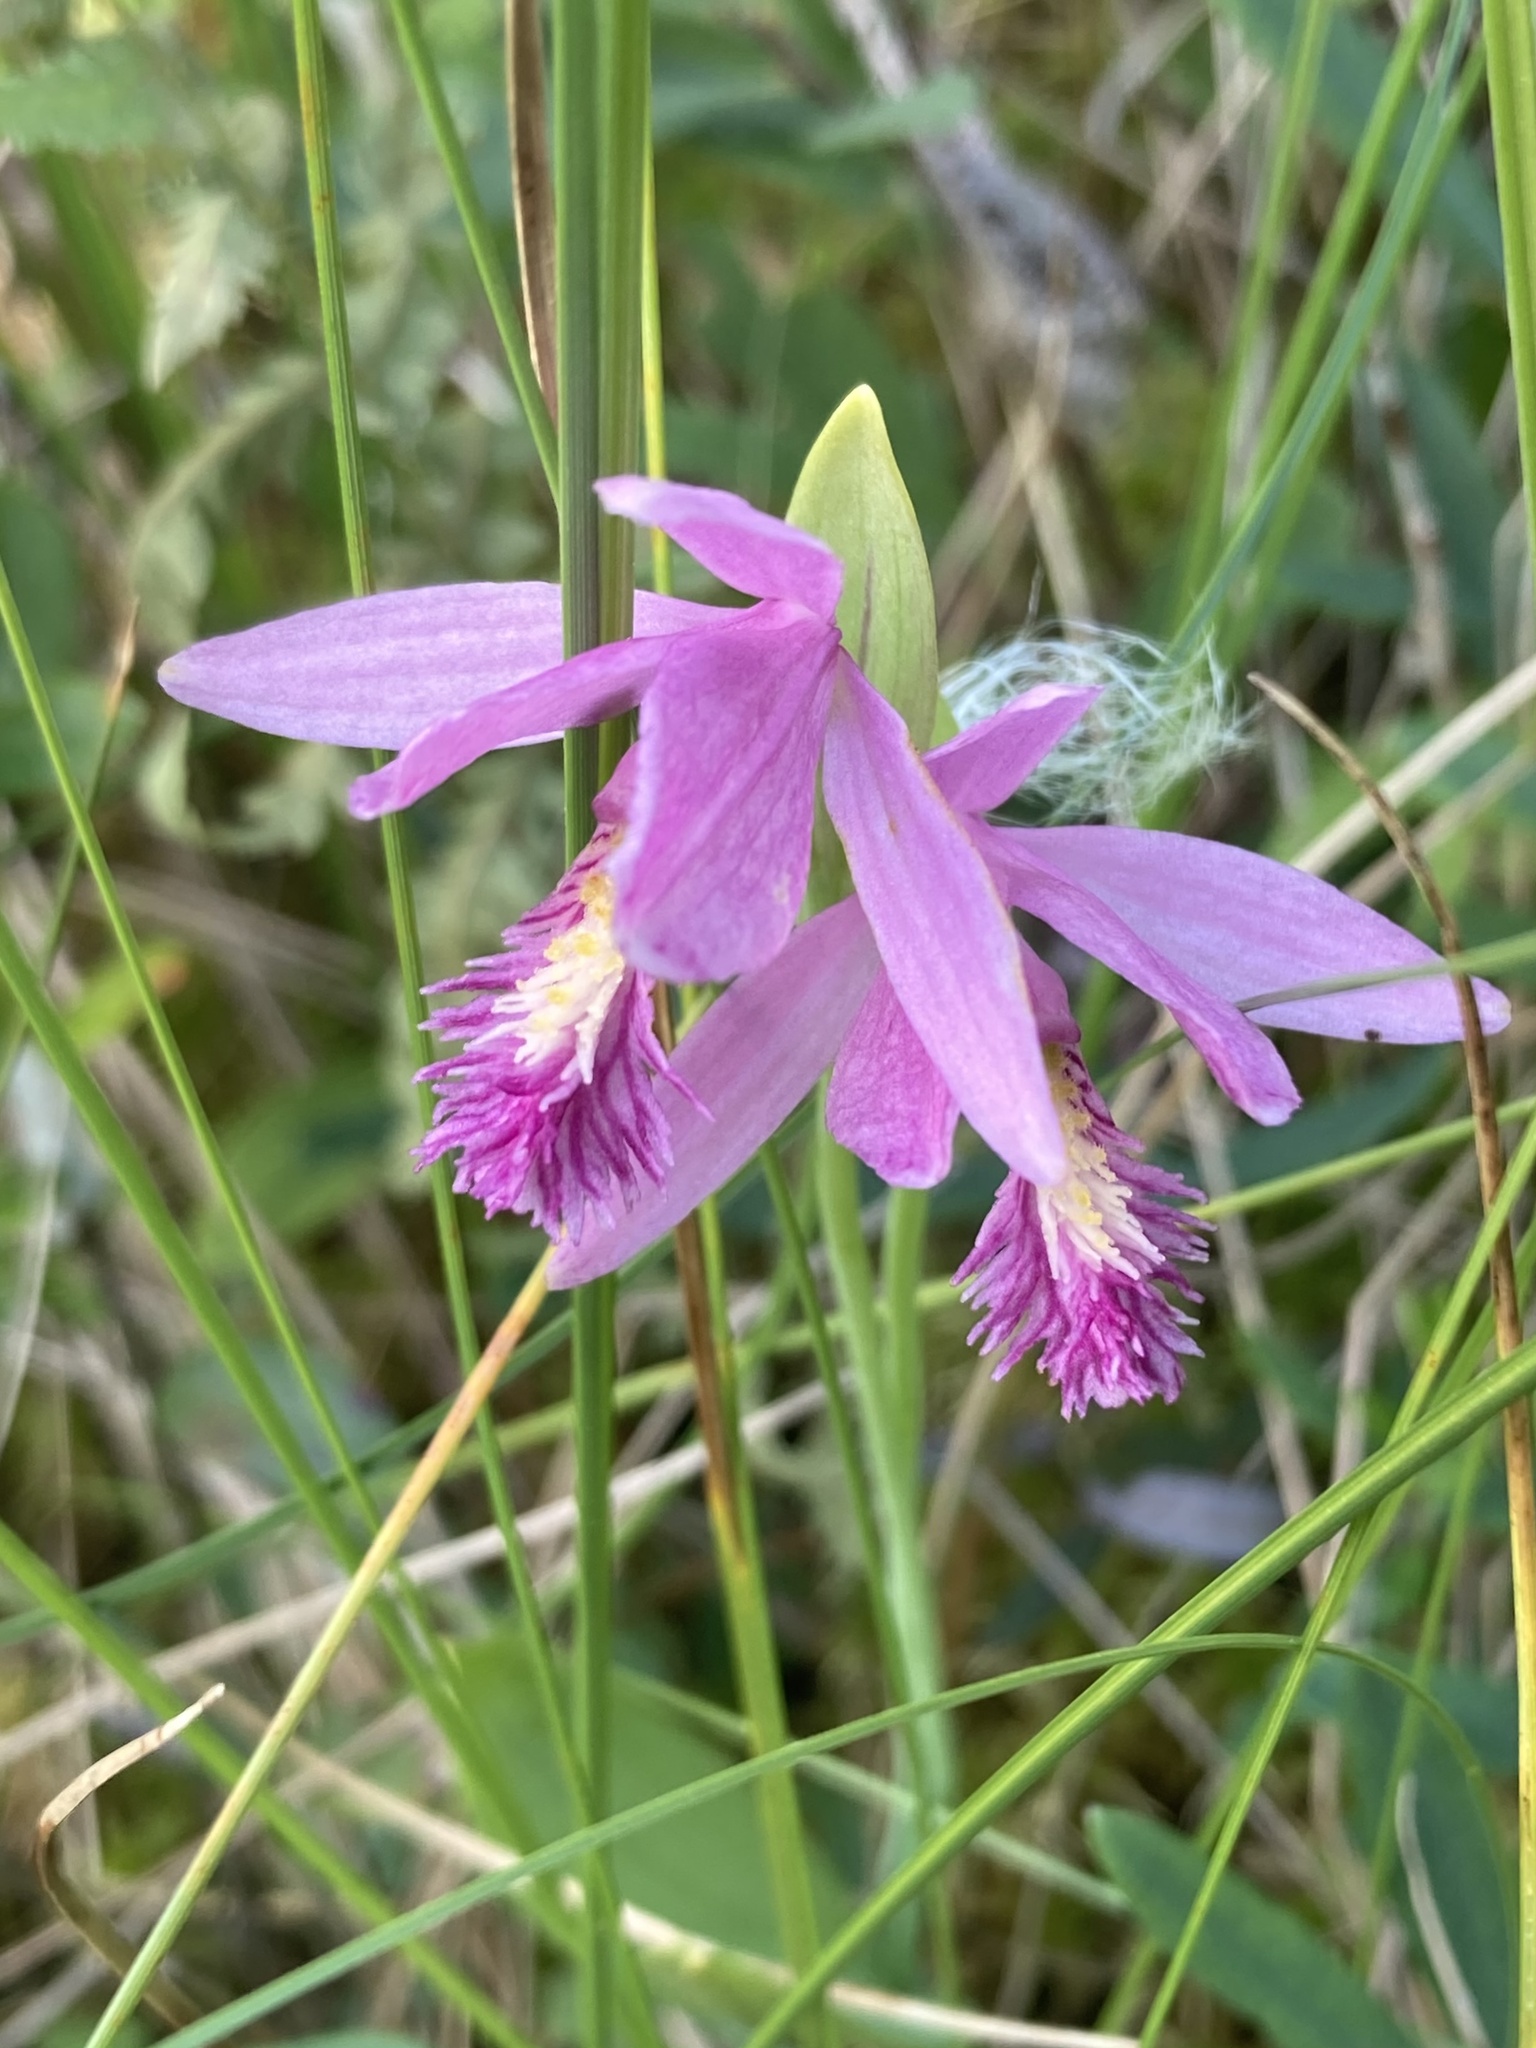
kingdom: Plantae
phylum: Tracheophyta
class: Liliopsida
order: Asparagales
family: Orchidaceae
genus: Pogonia
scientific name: Pogonia ophioglossoides
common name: Rose pogonia
